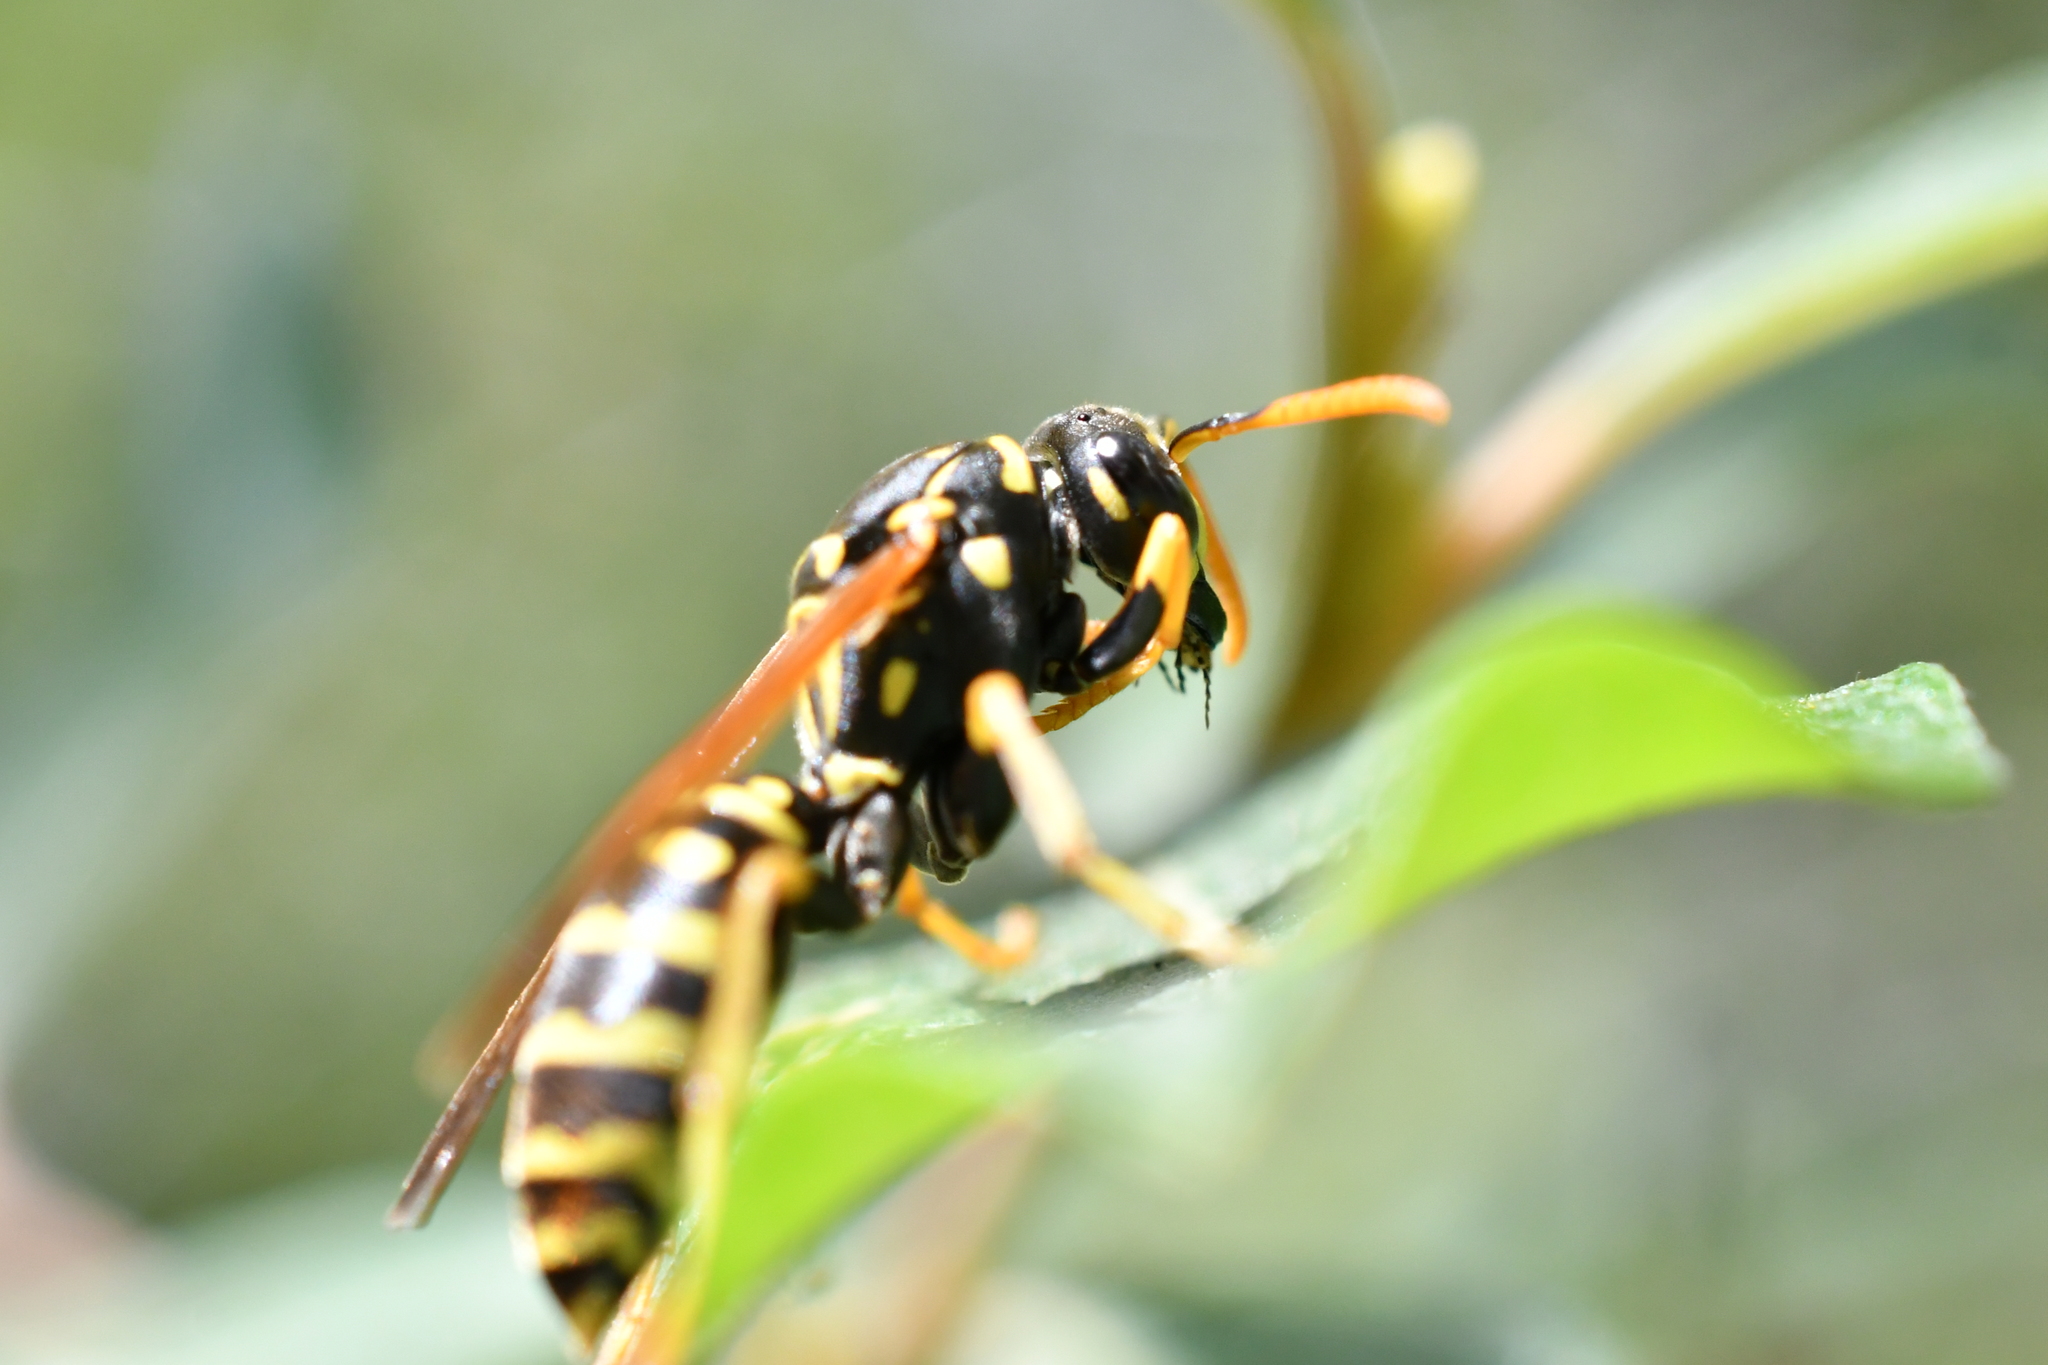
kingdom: Animalia
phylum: Arthropoda
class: Insecta
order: Hymenoptera
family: Eumenidae
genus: Polistes
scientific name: Polistes dominula
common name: Paper wasp
